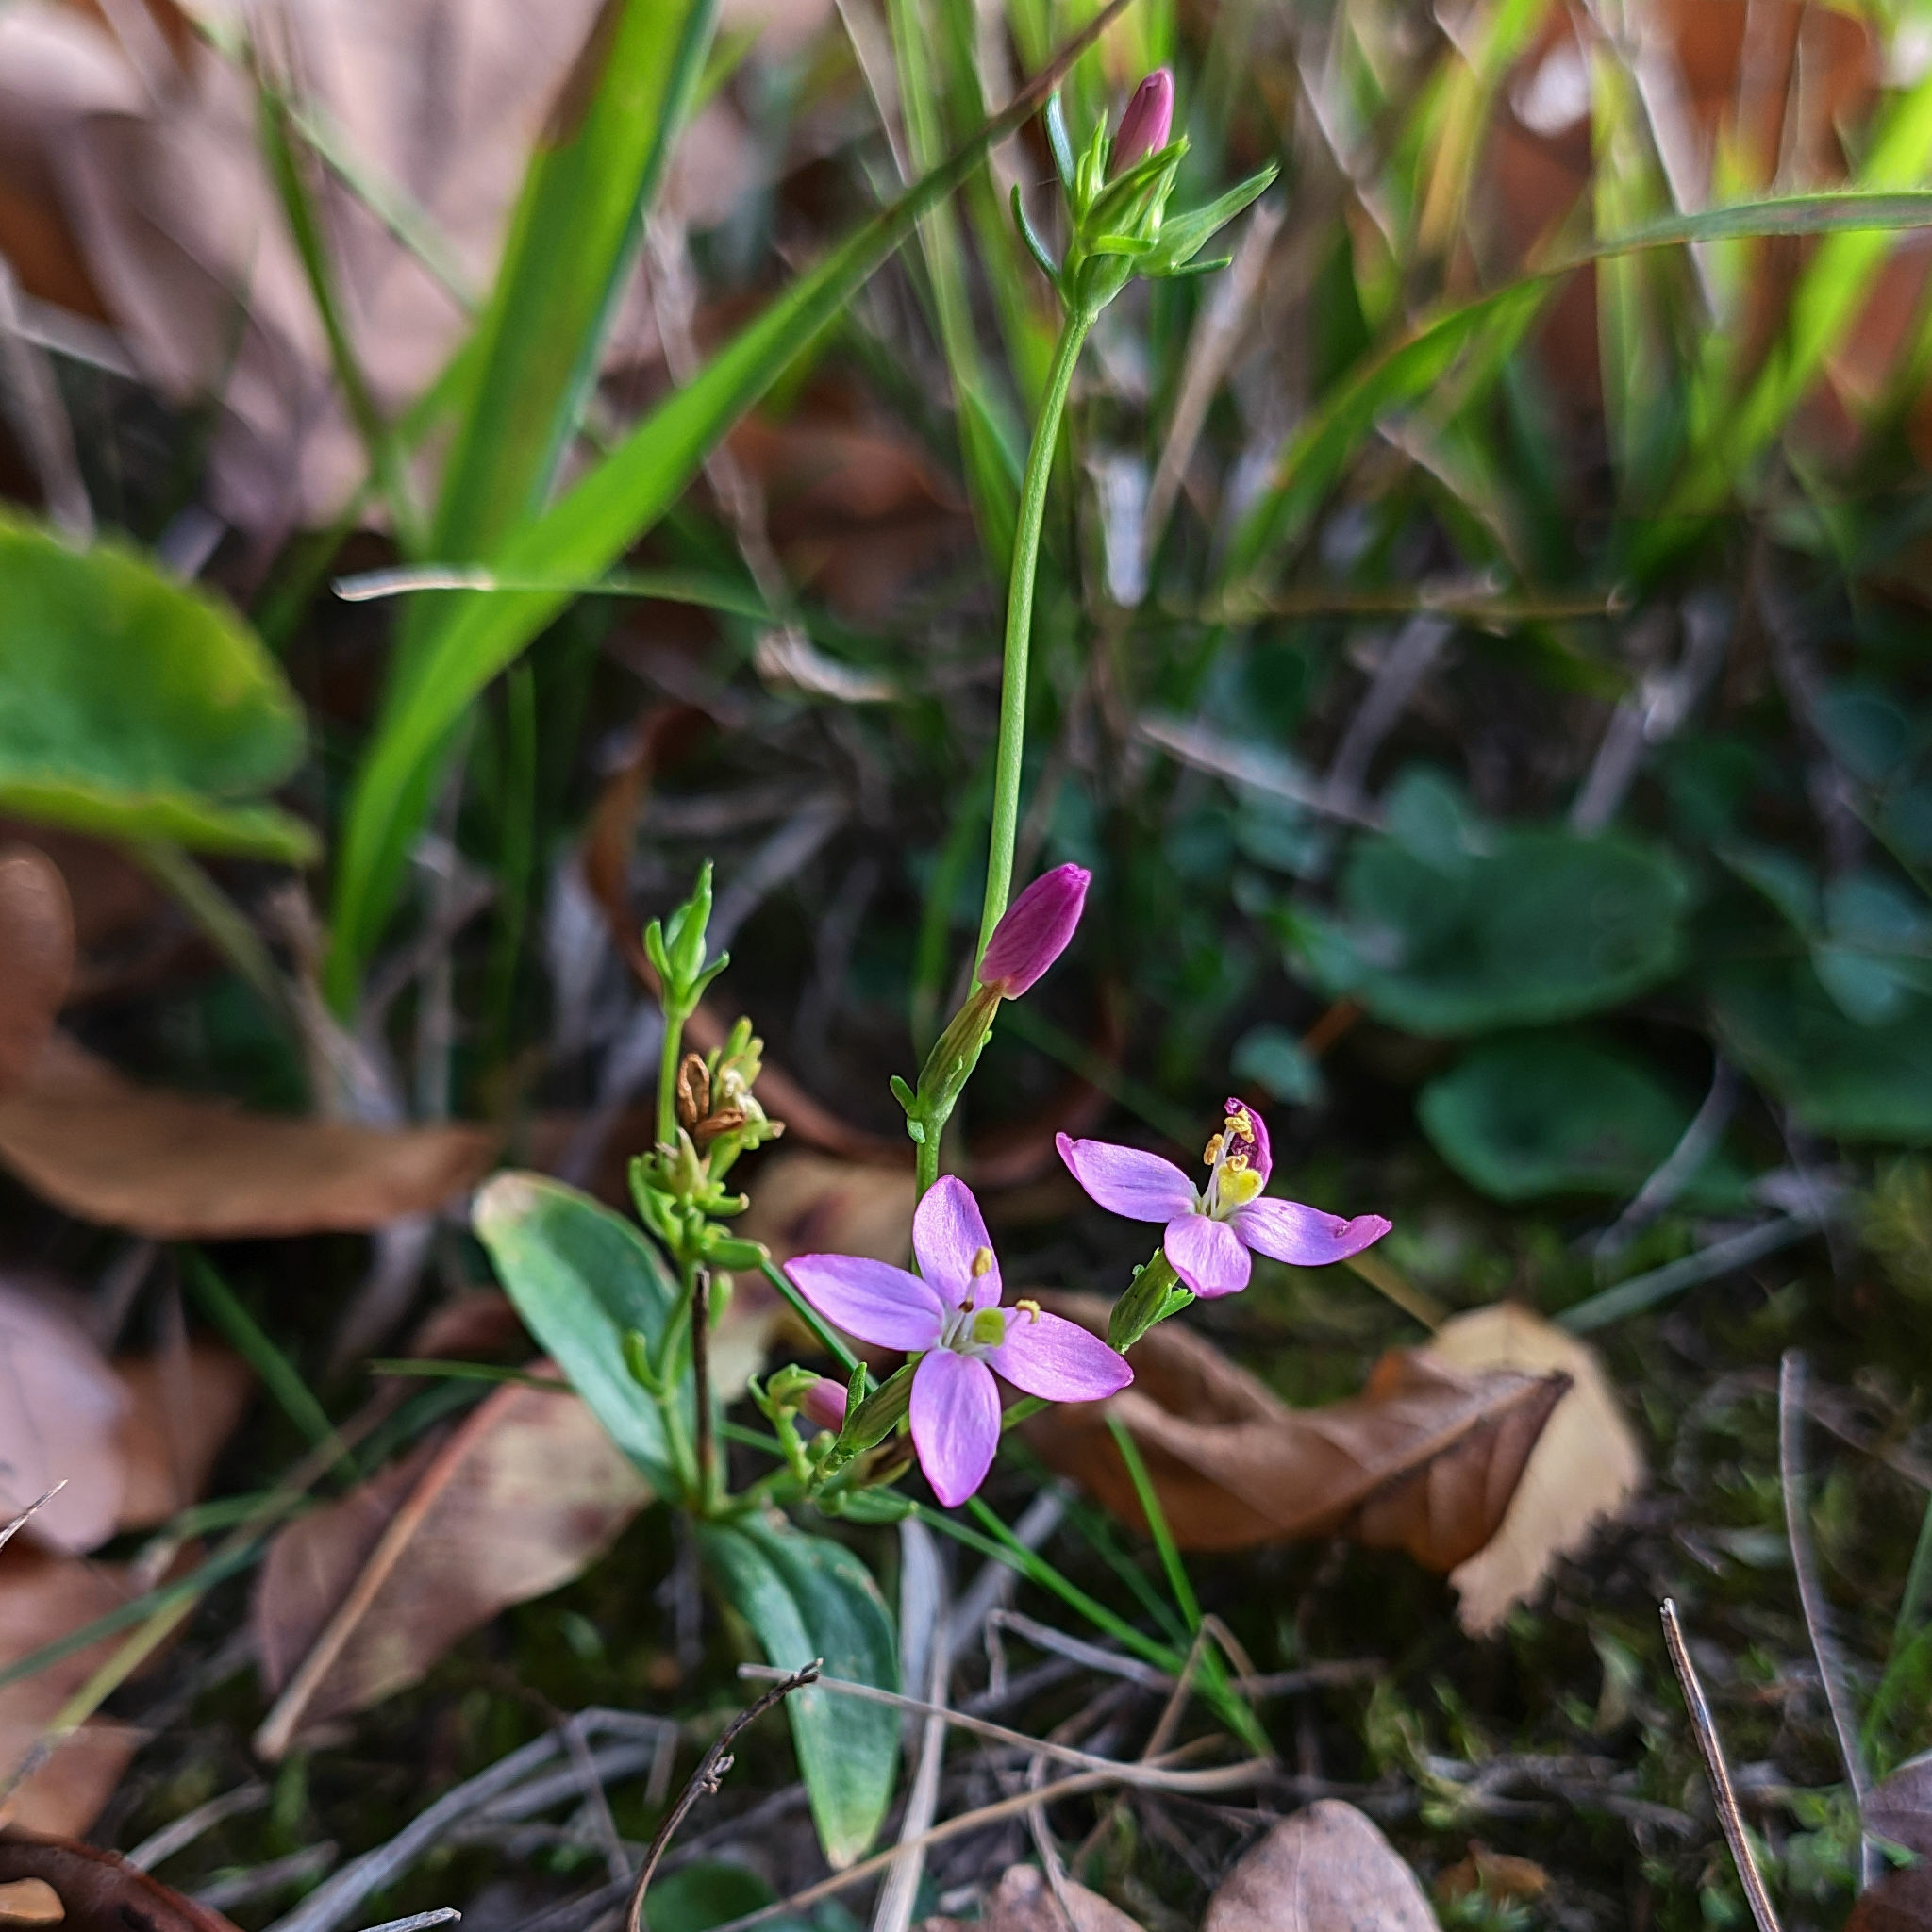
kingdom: Plantae
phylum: Tracheophyta
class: Magnoliopsida
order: Gentianales
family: Gentianaceae
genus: Centaurium
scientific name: Centaurium erythraea
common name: Common centaury
